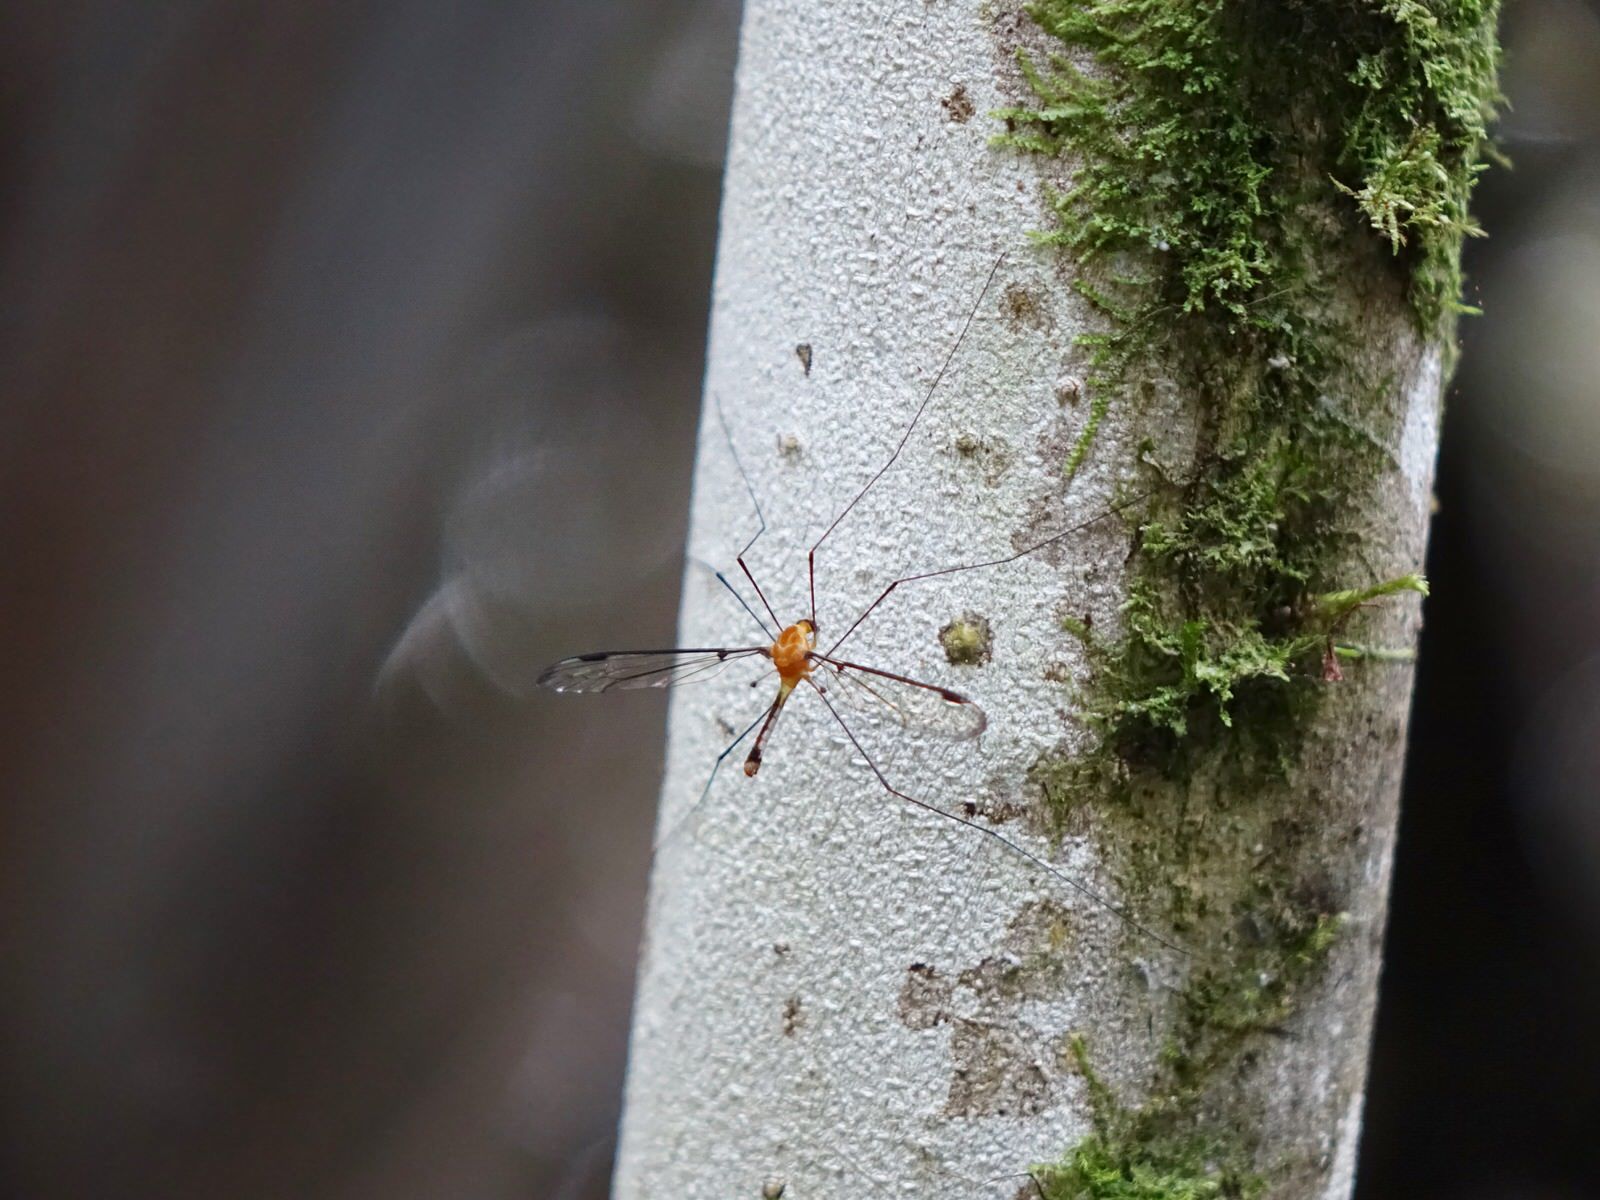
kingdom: Animalia
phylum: Arthropoda
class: Insecta
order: Diptera
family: Tipulidae
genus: Aurotipula
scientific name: Aurotipula
